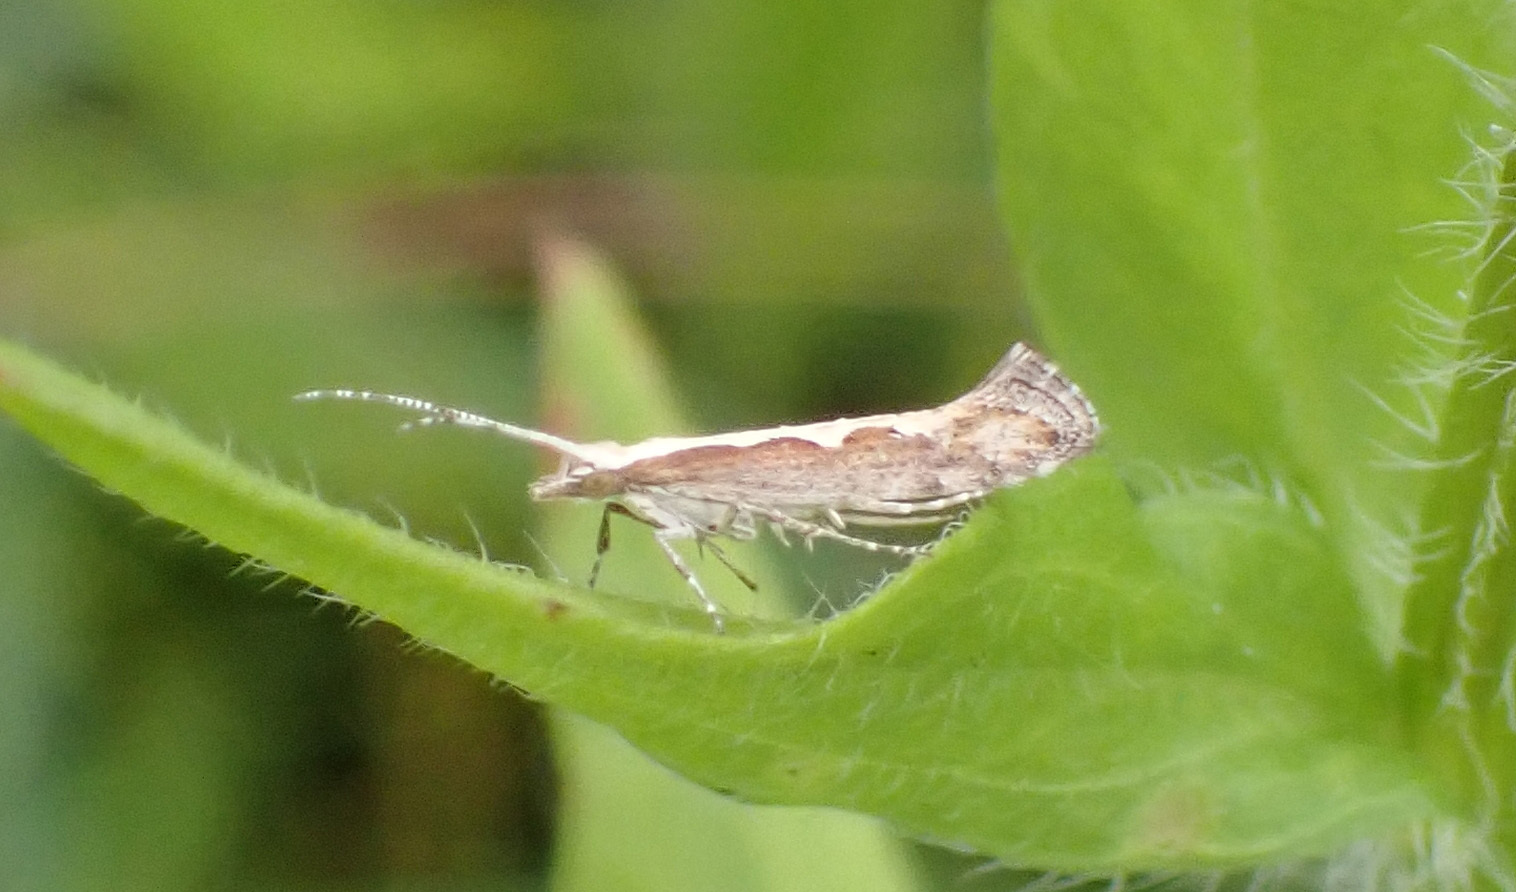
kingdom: Animalia
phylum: Arthropoda
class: Insecta
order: Lepidoptera
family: Plutellidae
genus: Plutella
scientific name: Plutella xylostella
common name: Diamond-back moth
